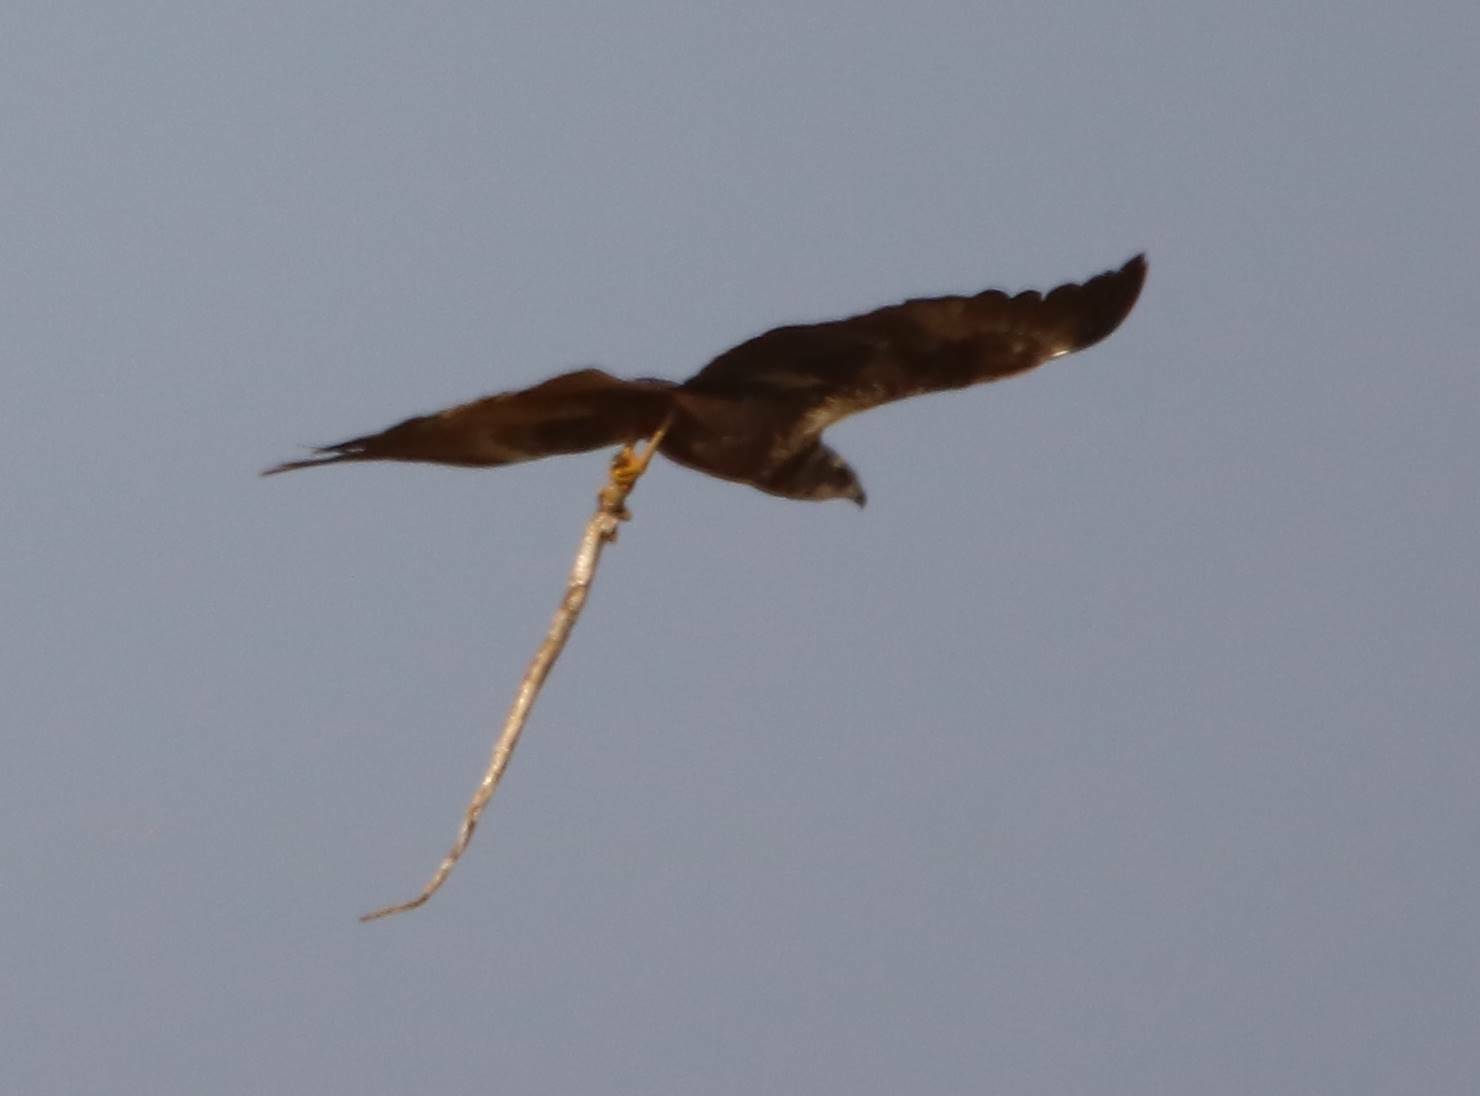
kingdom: Animalia
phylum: Chordata
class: Aves
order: Accipitriformes
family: Accipitridae
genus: Circus
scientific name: Circus aeruginosus
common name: Western marsh harrier
